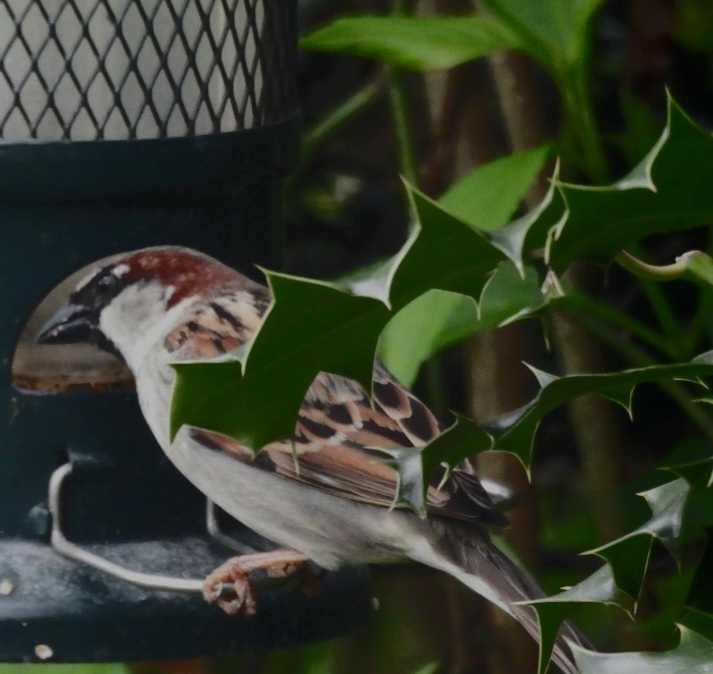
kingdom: Animalia
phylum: Chordata
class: Aves
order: Passeriformes
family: Passeridae
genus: Passer
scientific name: Passer domesticus
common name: House sparrow
